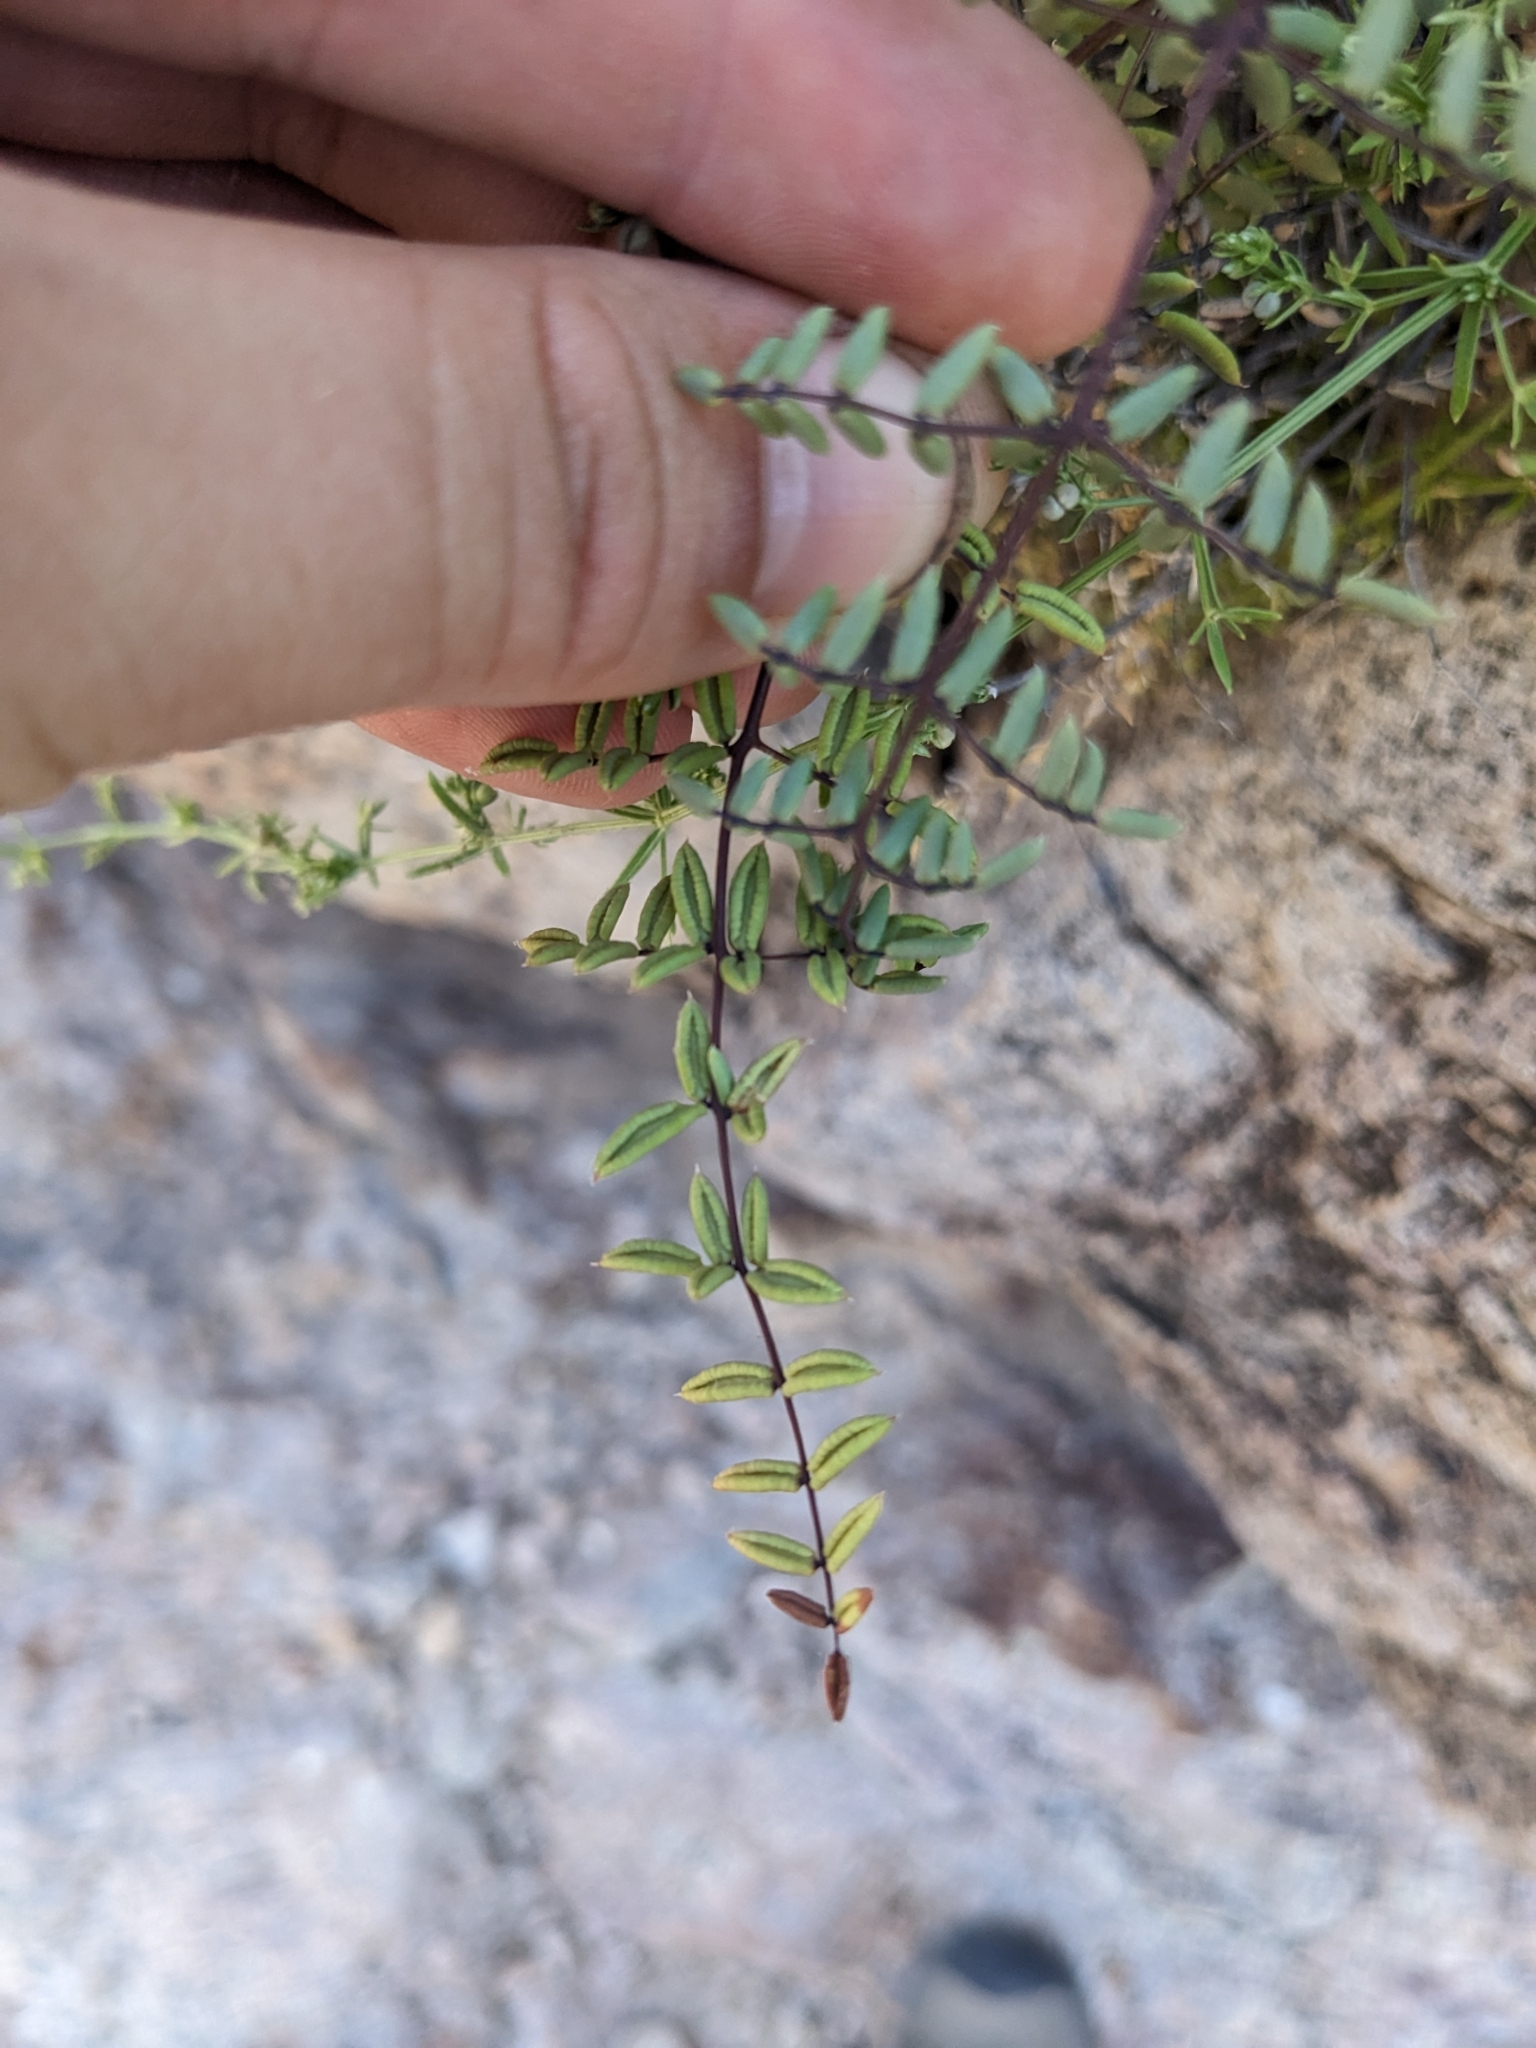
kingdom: Plantae
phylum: Tracheophyta
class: Polypodiopsida
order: Polypodiales
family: Pteridaceae
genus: Pellaea
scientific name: Pellaea truncata
